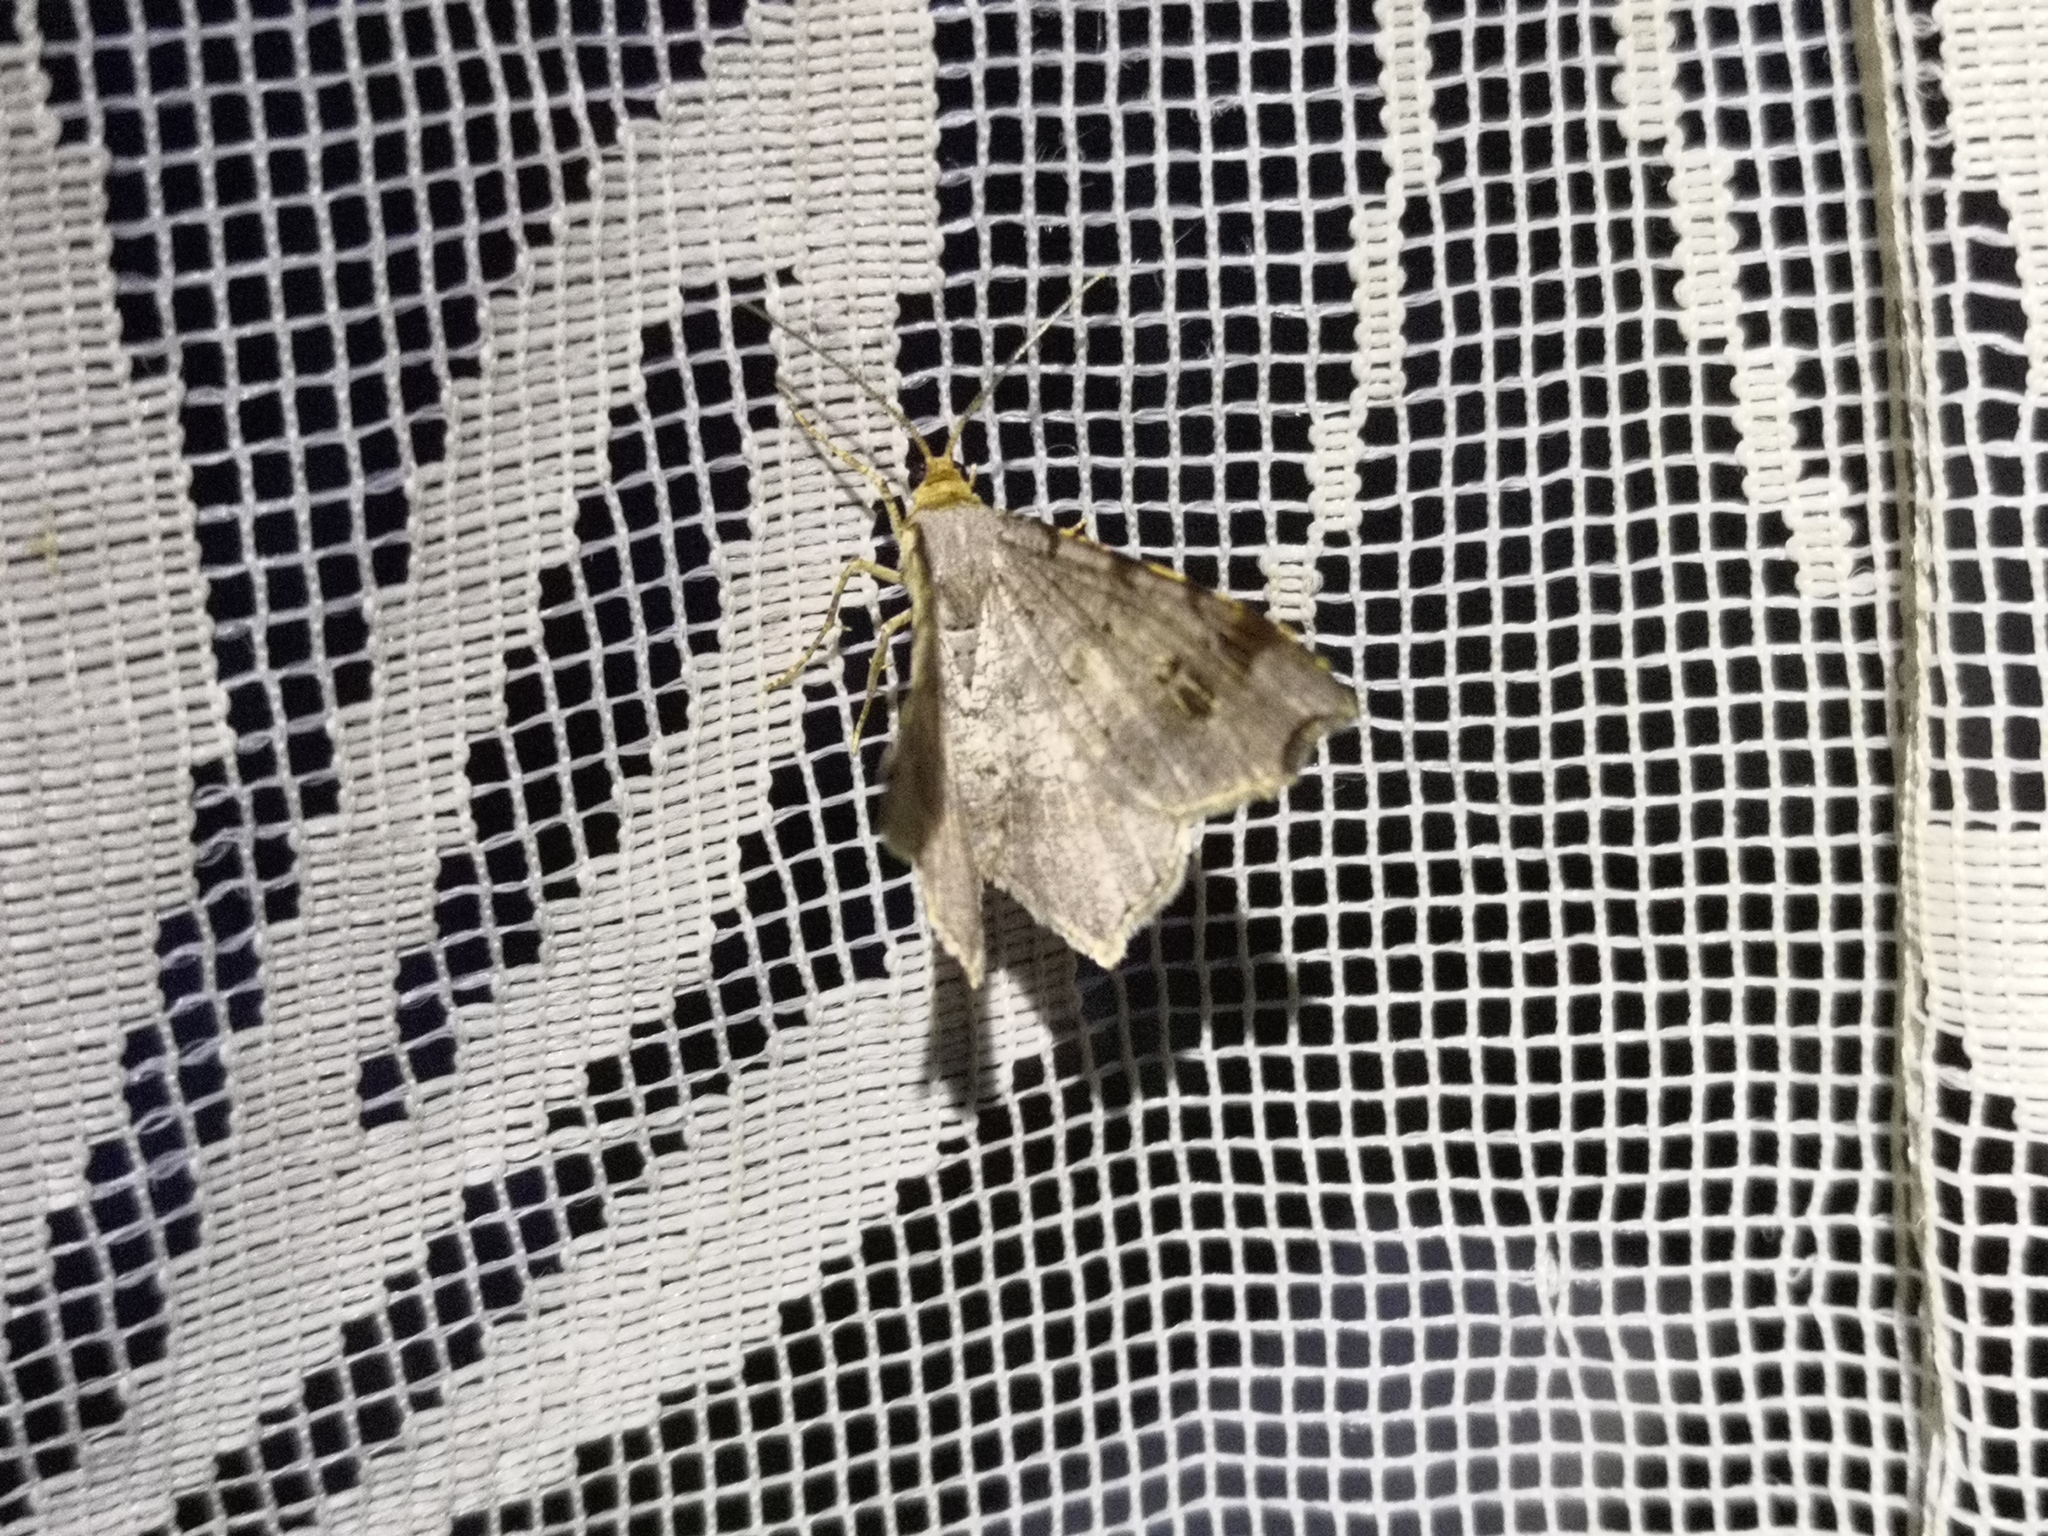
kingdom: Animalia
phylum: Arthropoda
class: Insecta
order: Lepidoptera
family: Geometridae
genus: Macaria
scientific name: Macaria alternata
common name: Sharp-angled peacock
